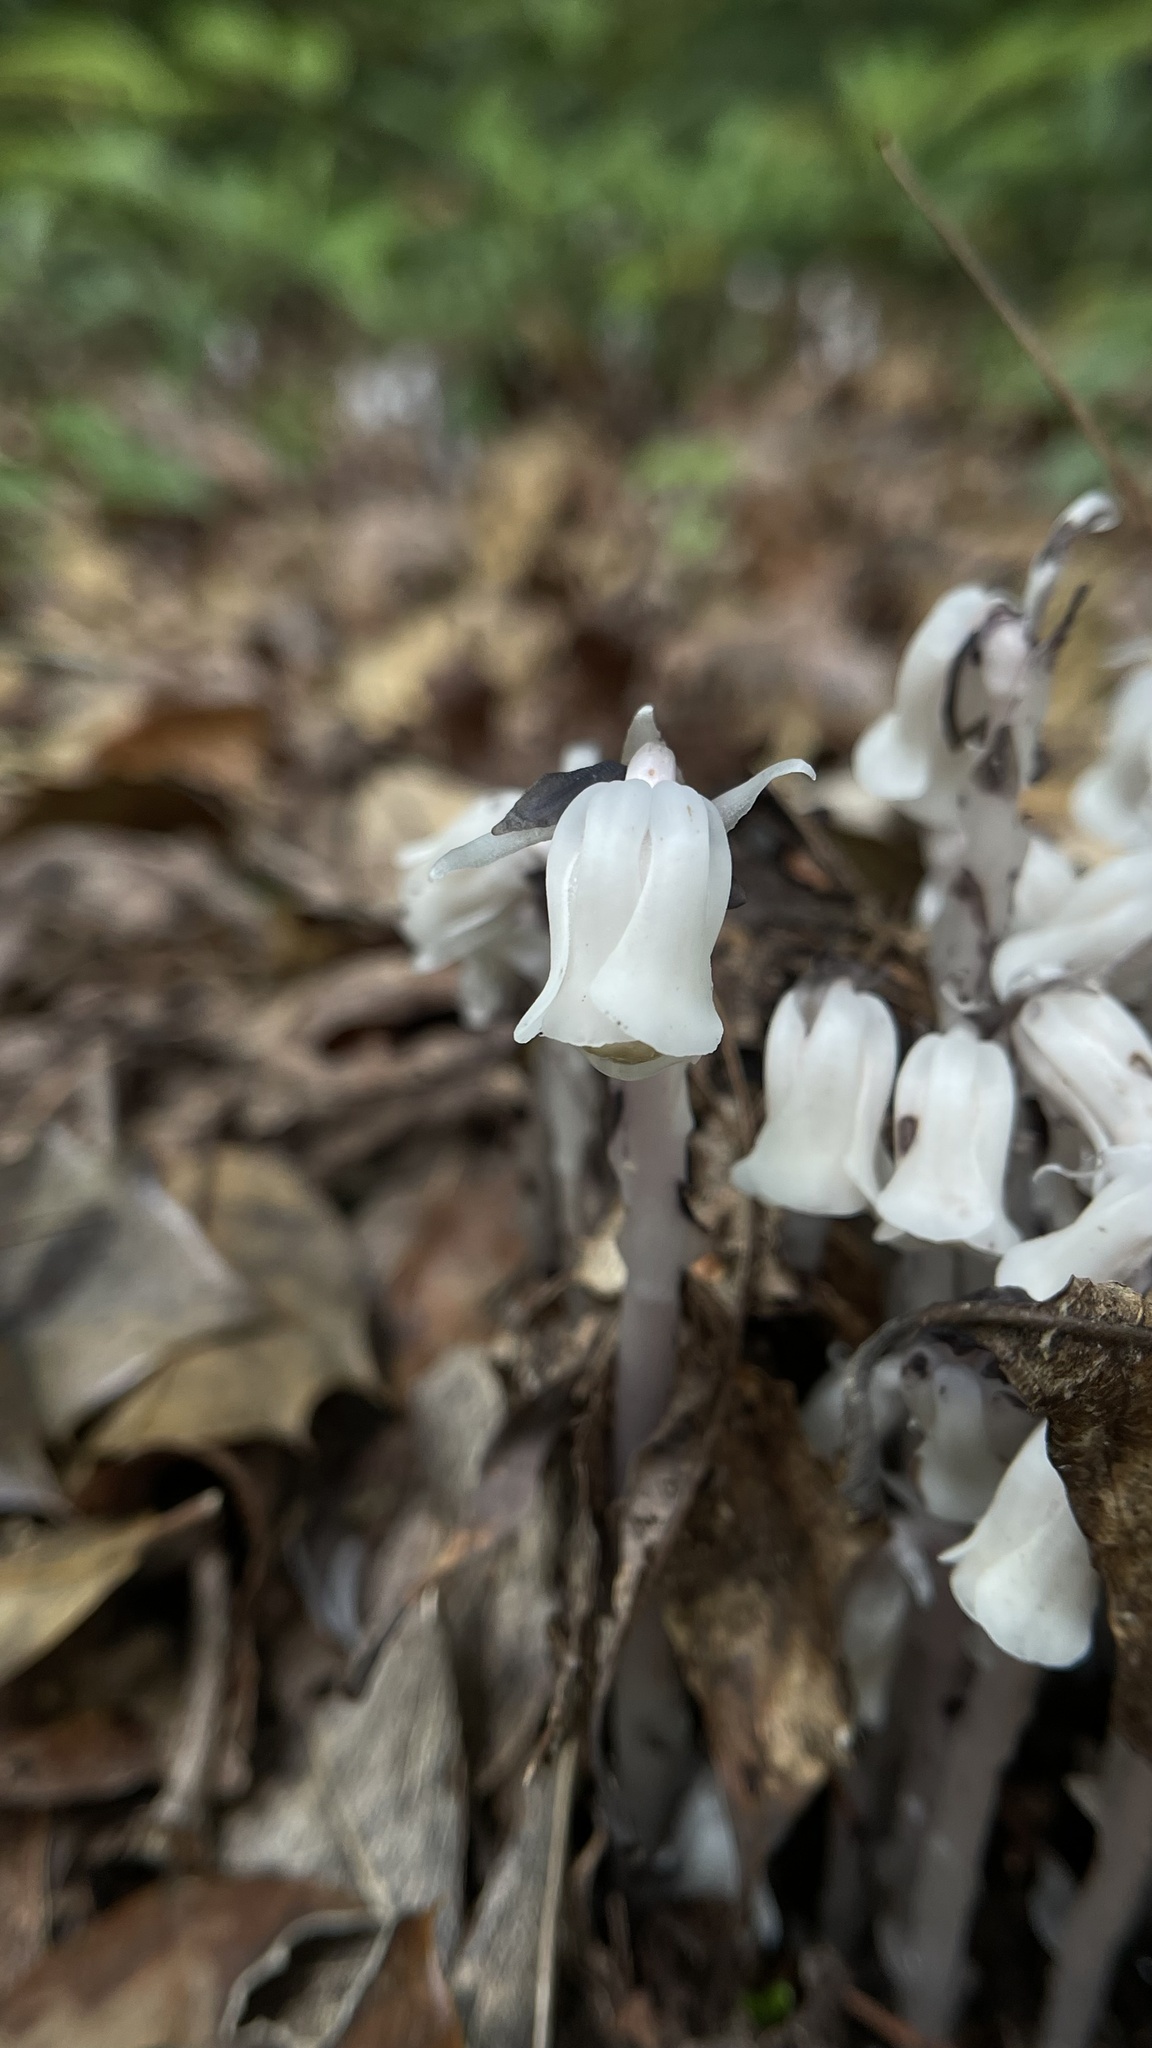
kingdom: Plantae
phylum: Tracheophyta
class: Magnoliopsida
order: Ericales
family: Ericaceae
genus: Monotropa
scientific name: Monotropa uniflora
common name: Convulsion root
